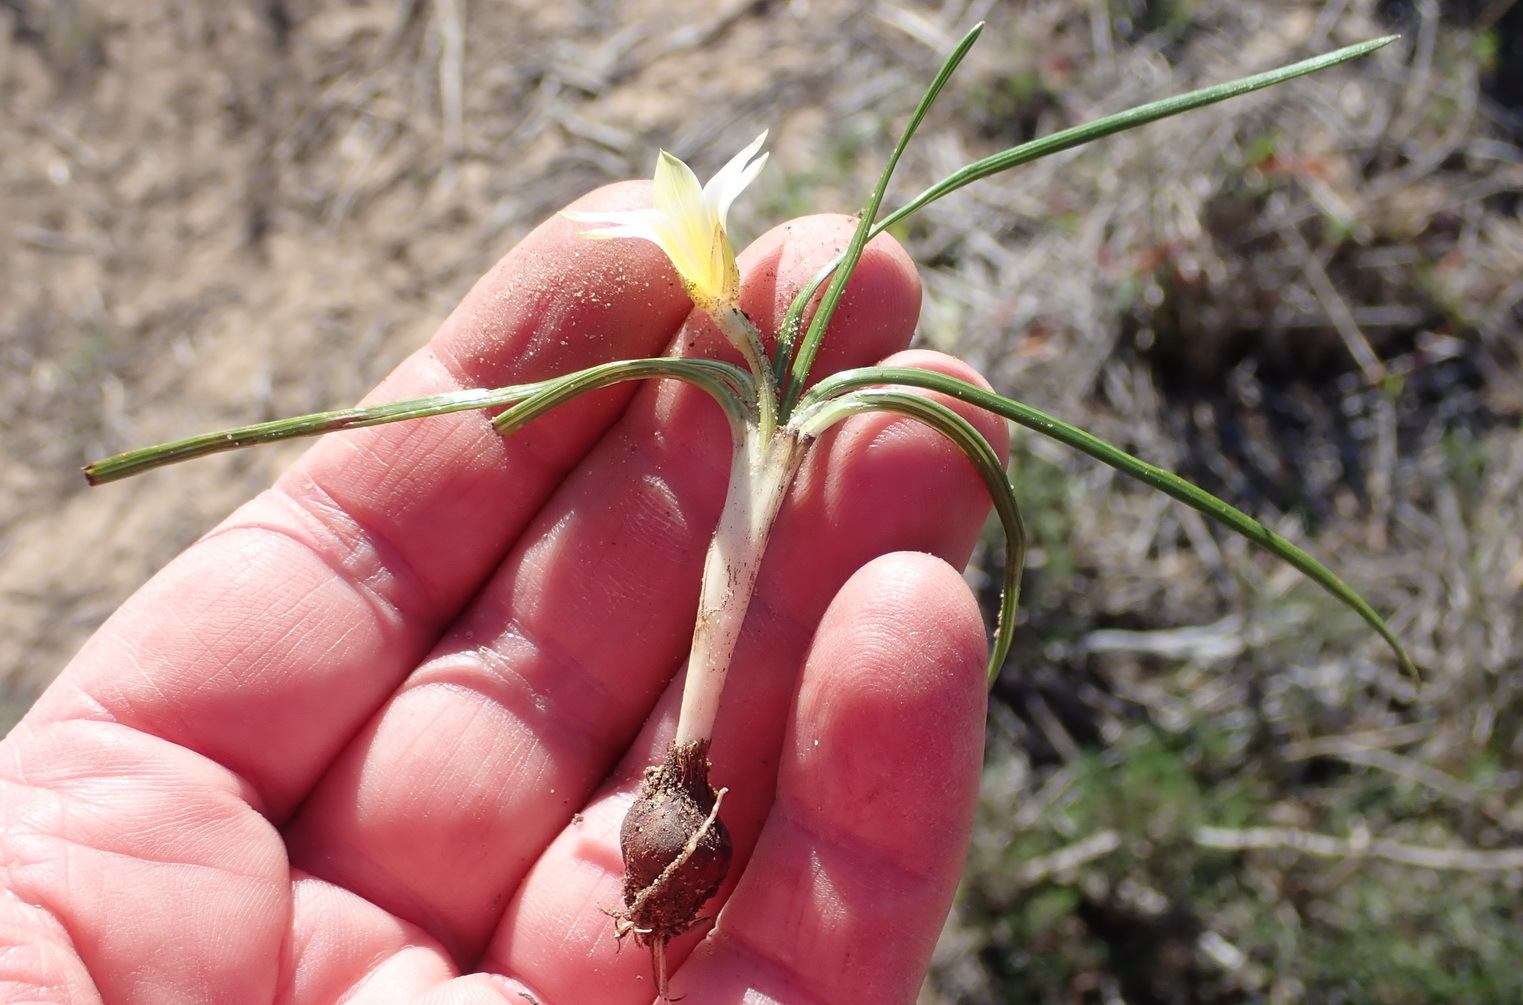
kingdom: Plantae
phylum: Tracheophyta
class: Liliopsida
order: Asparagales
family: Iridaceae
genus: Romulea
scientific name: Romulea atrandra
